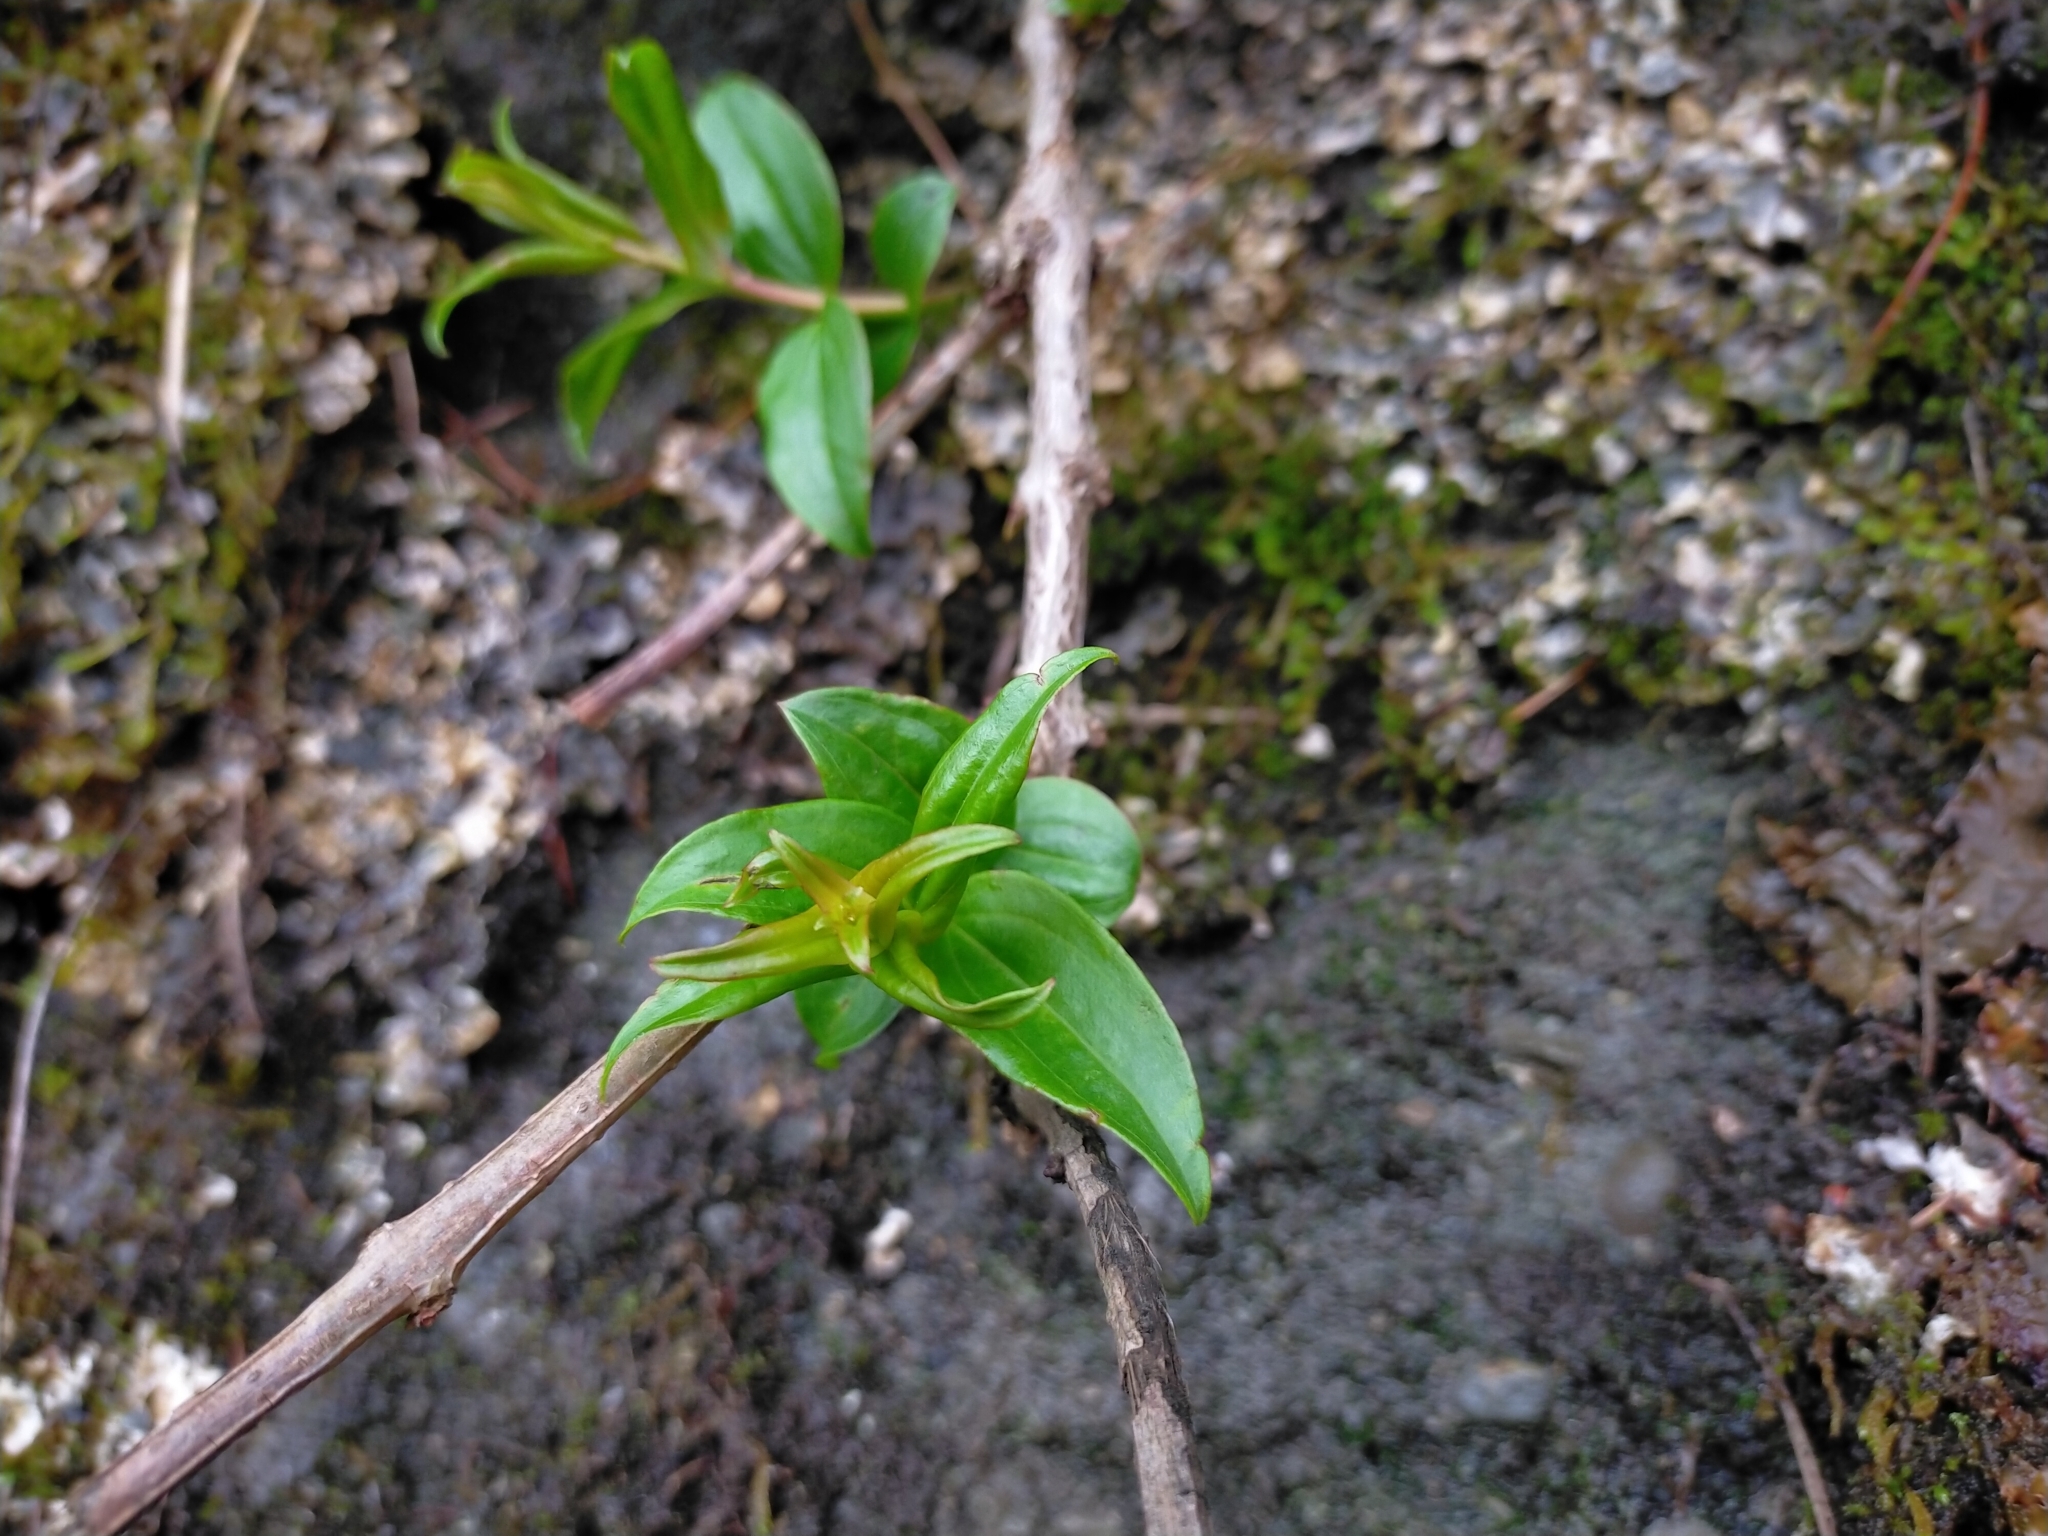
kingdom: Plantae
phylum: Tracheophyta
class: Magnoliopsida
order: Cucurbitales
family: Coriariaceae
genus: Coriaria
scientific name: Coriaria japonica
